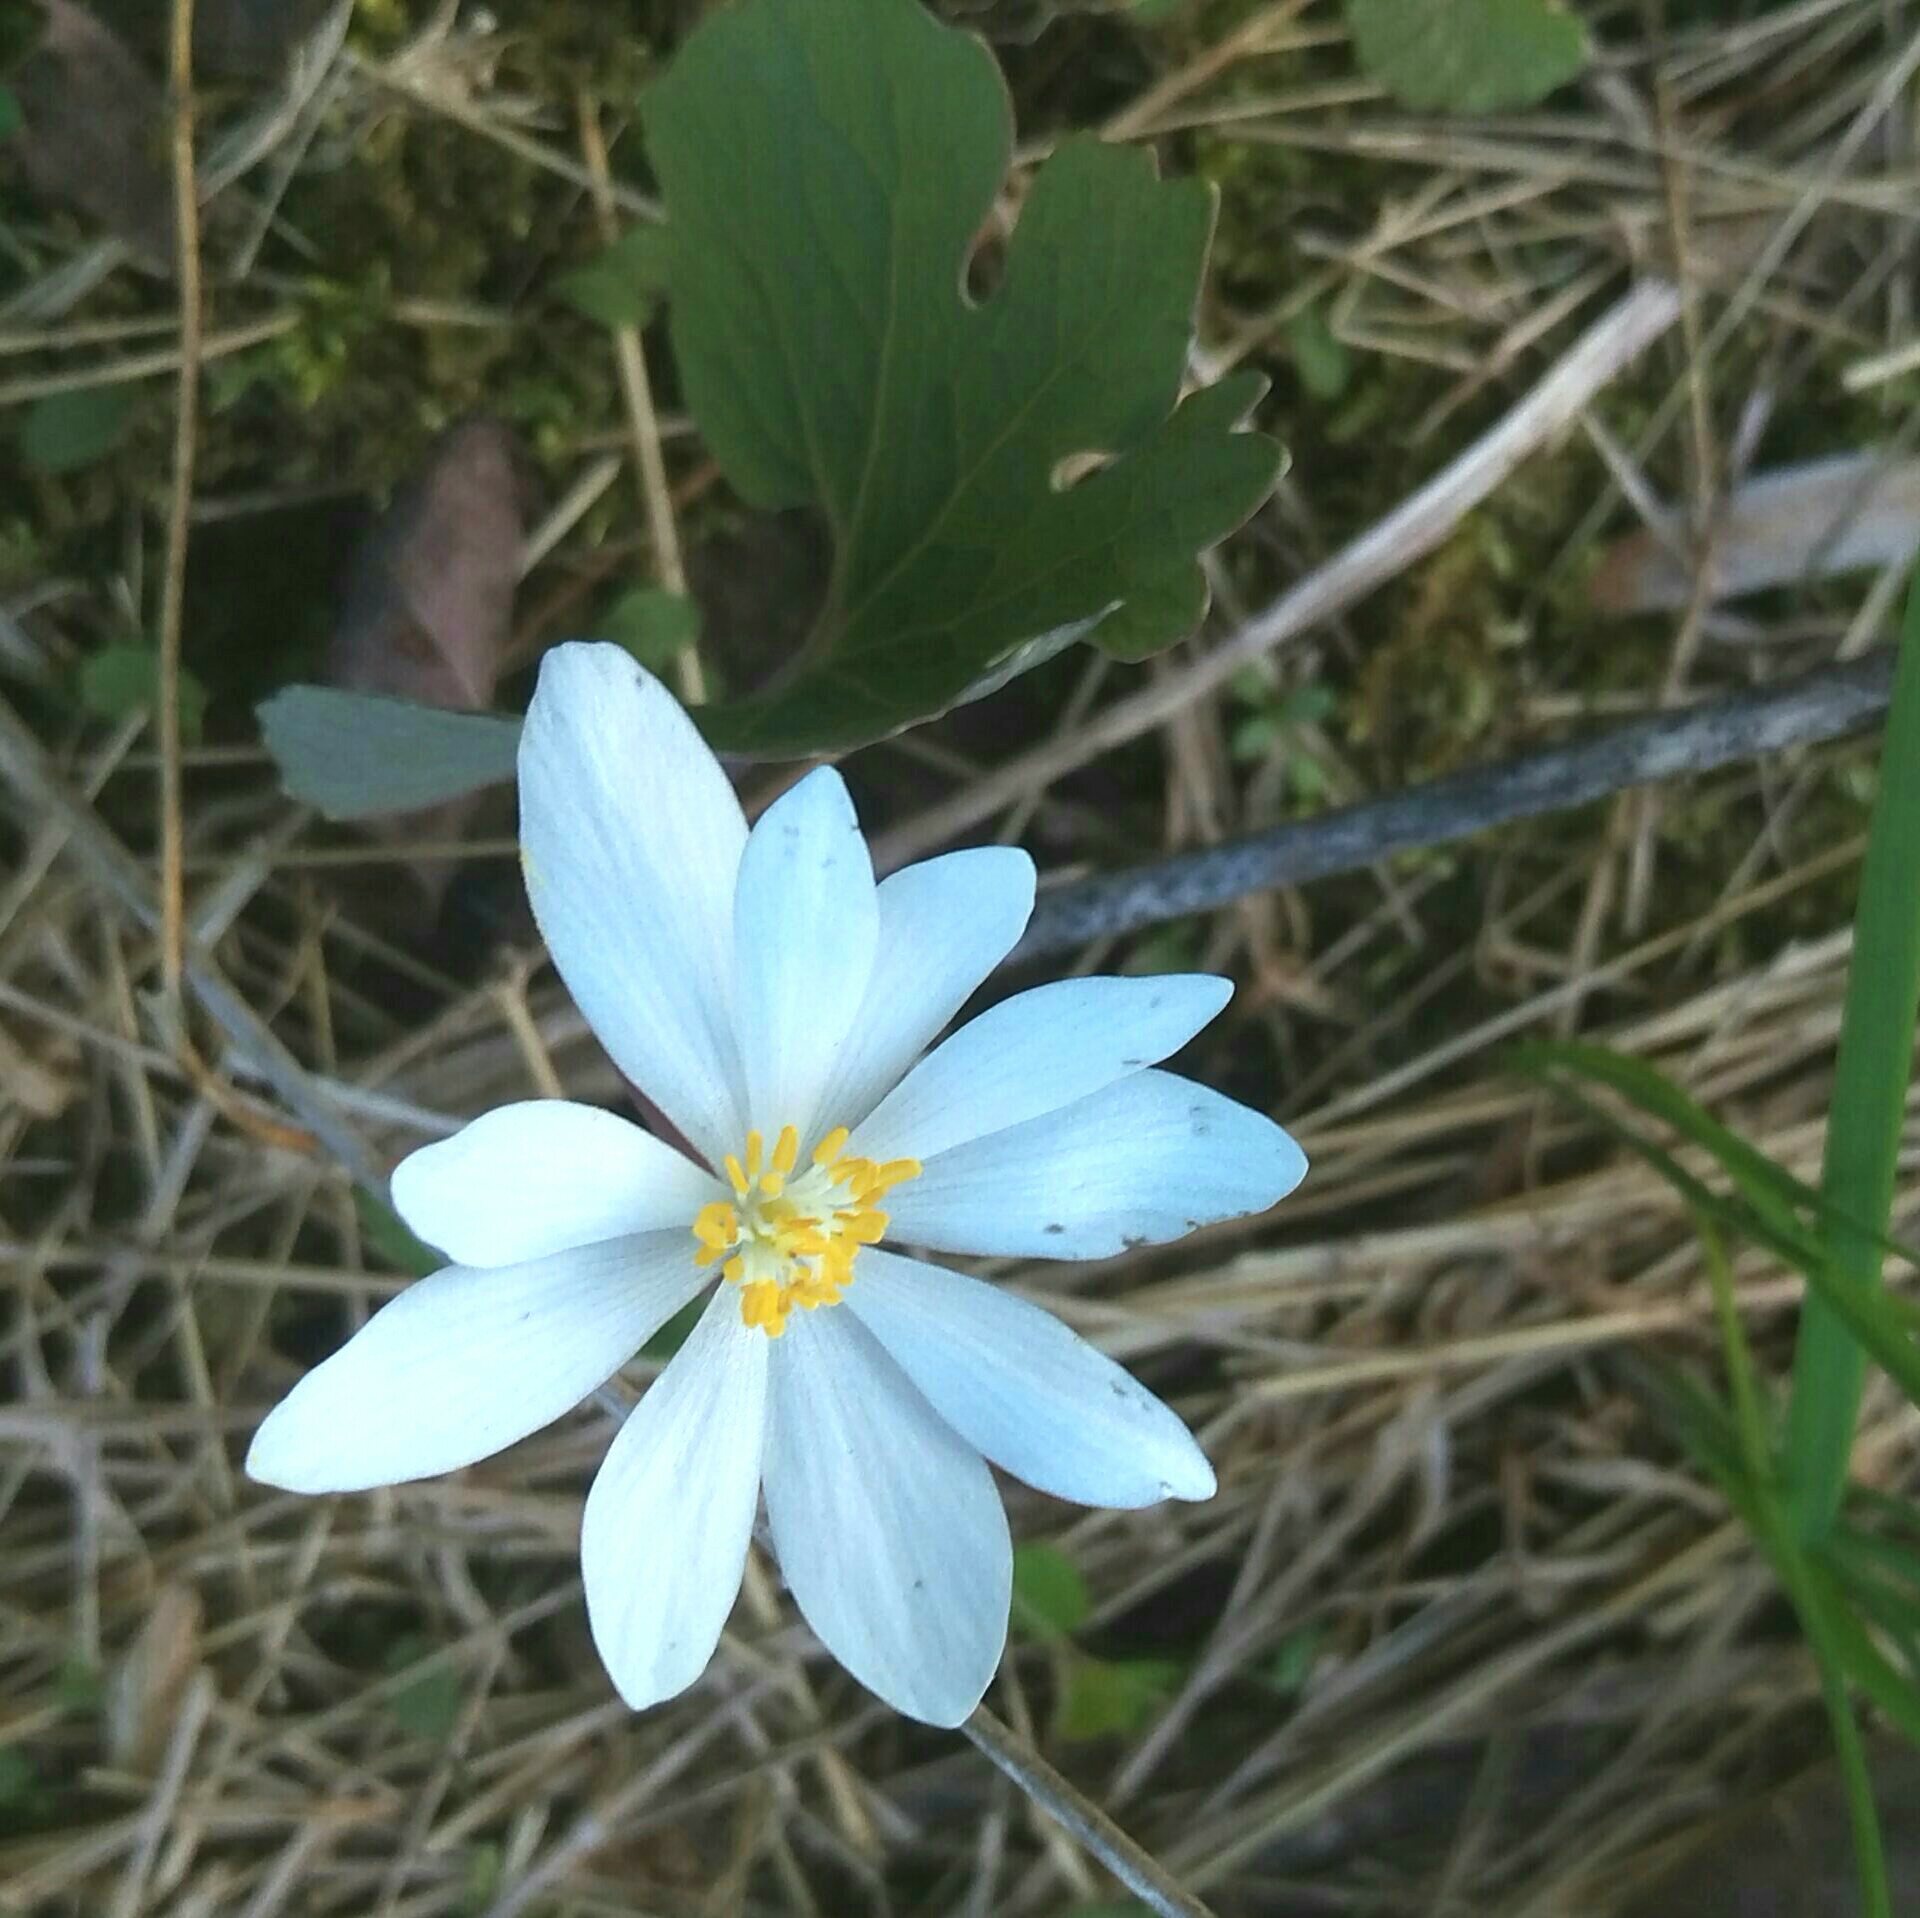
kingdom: Plantae
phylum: Tracheophyta
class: Magnoliopsida
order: Ranunculales
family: Papaveraceae
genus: Sanguinaria
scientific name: Sanguinaria canadensis
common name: Bloodroot
